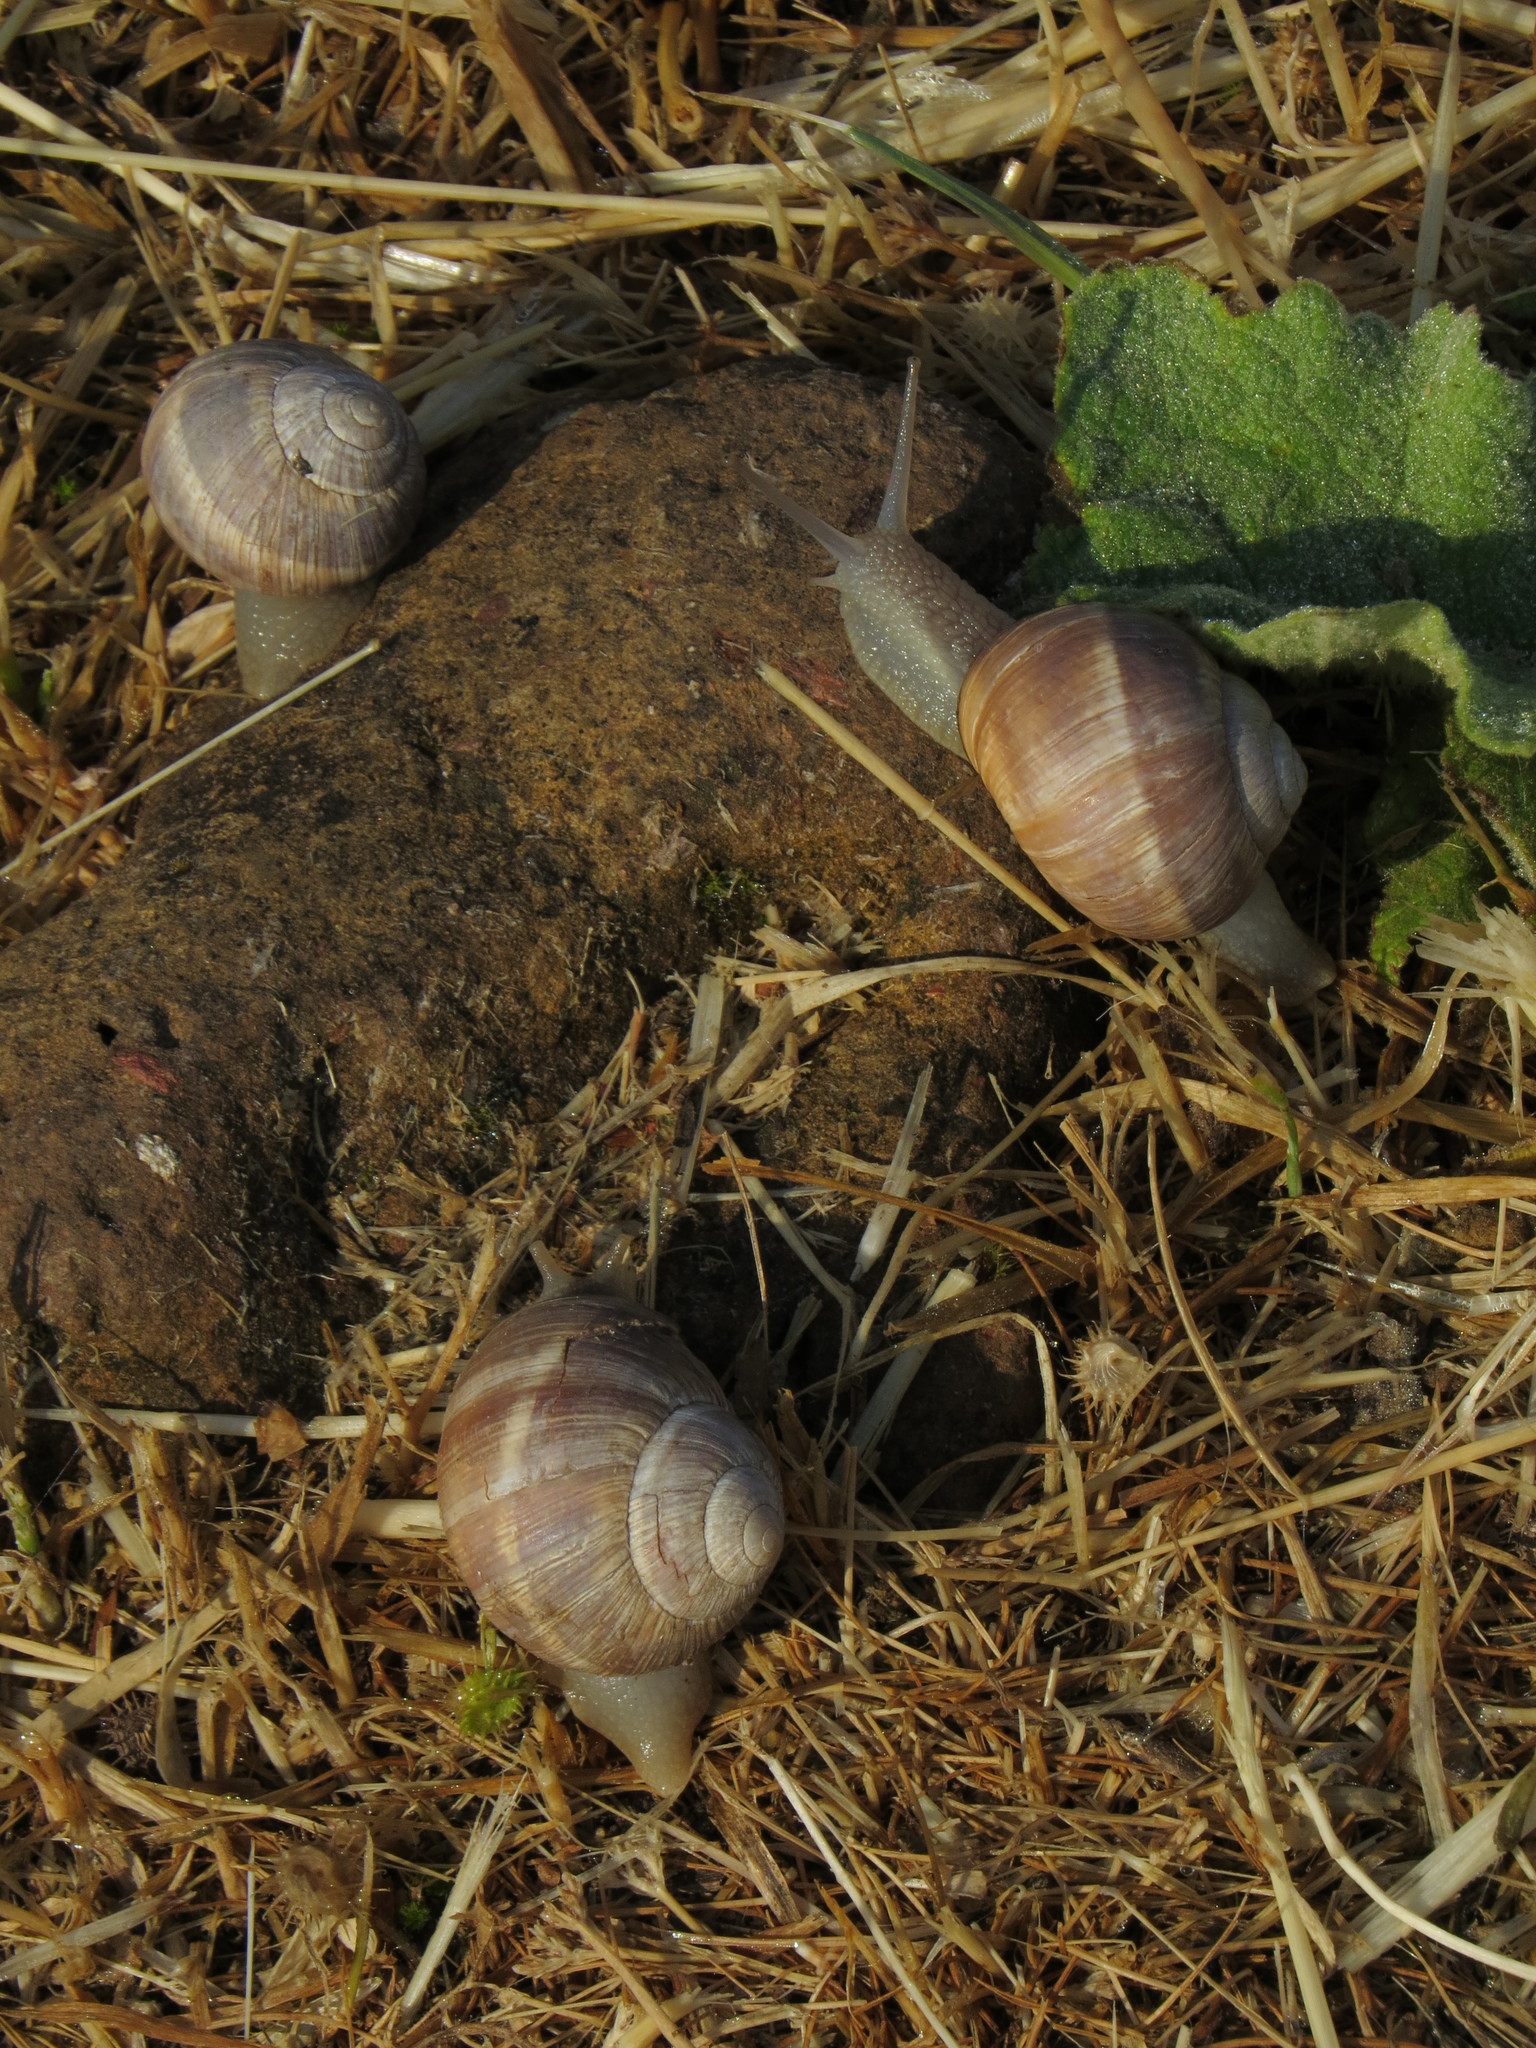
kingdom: Animalia
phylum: Mollusca
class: Gastropoda
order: Stylommatophora
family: Helicidae
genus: Helix
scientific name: Helix cincta
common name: Greek banded snail
